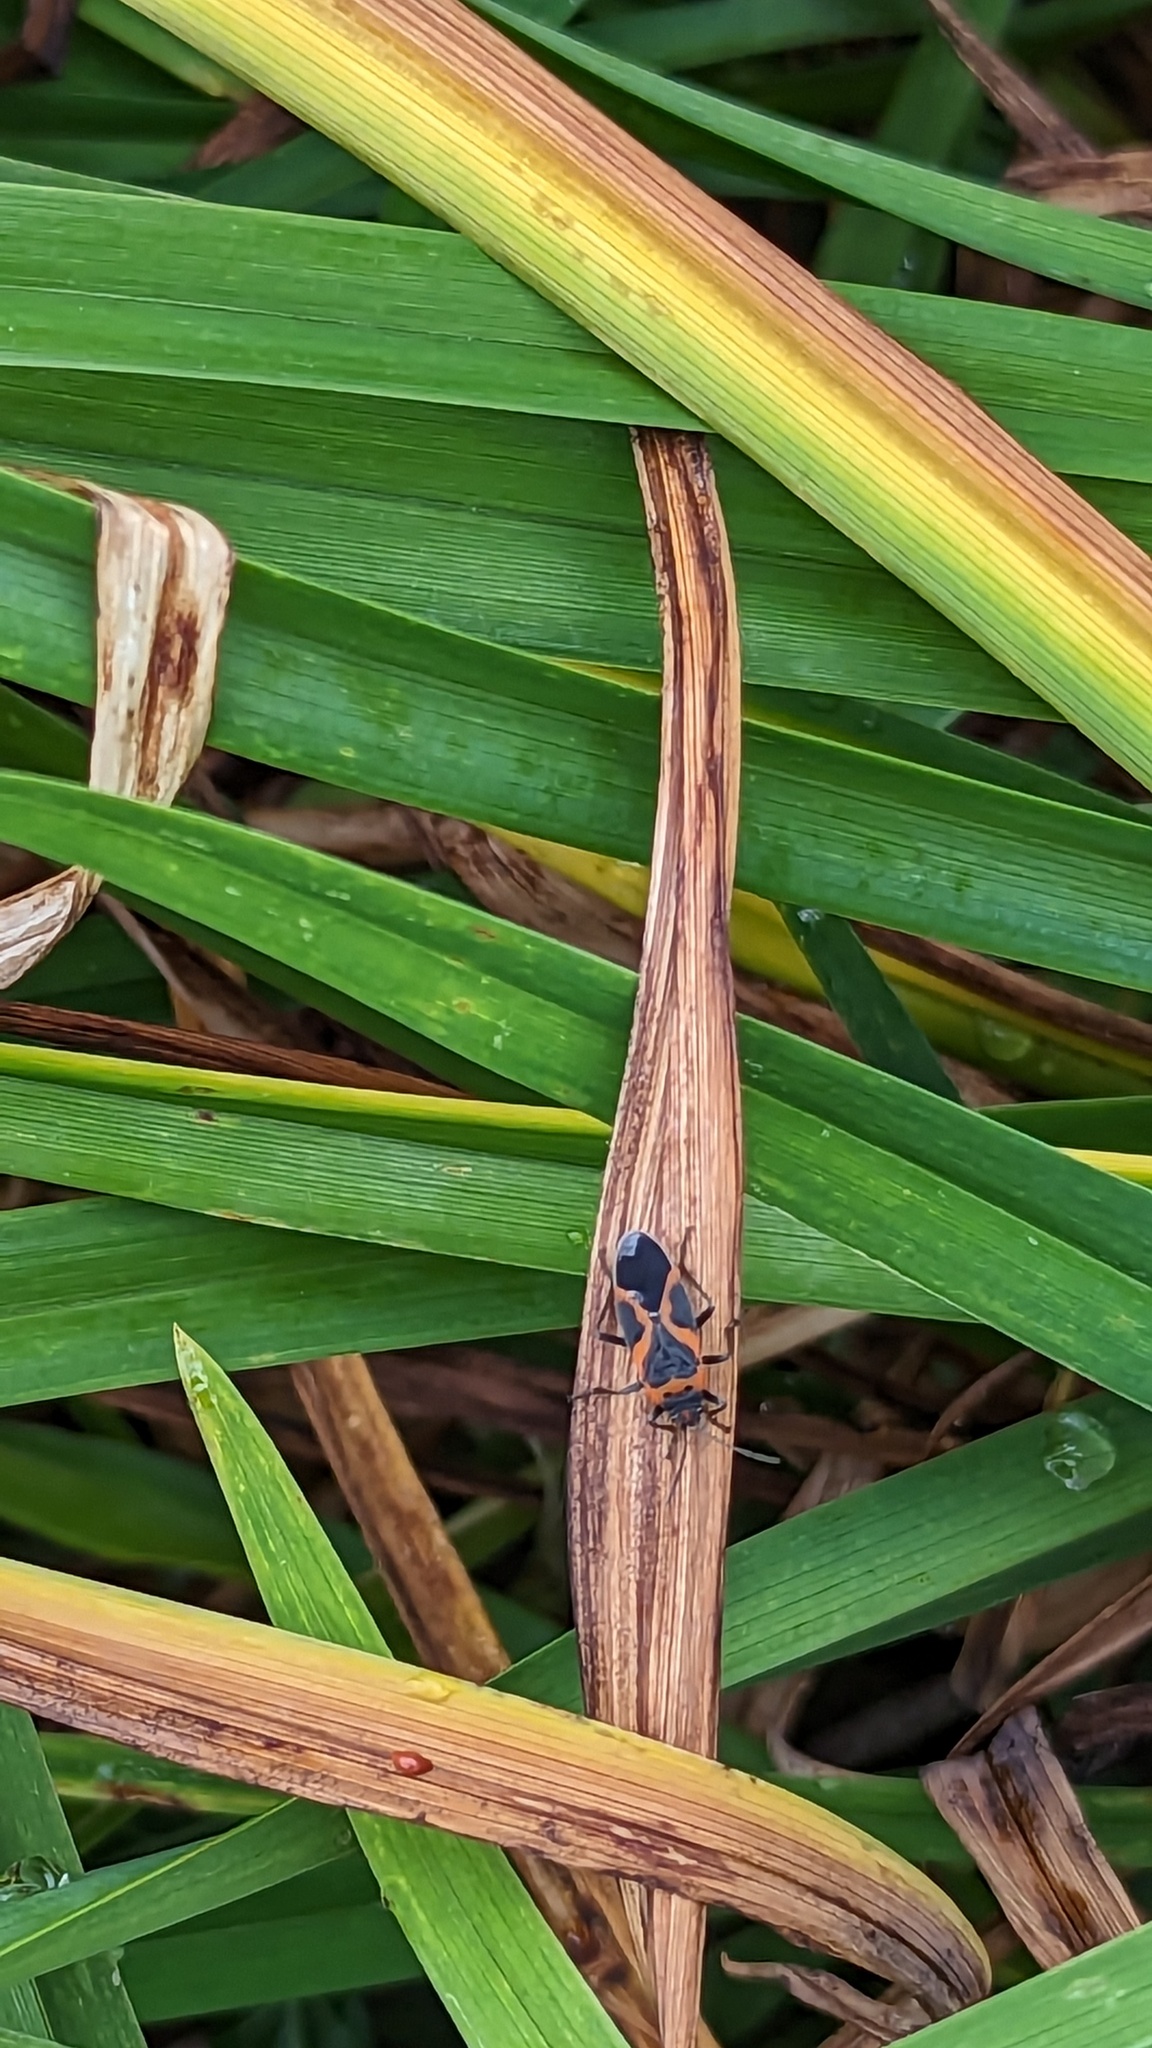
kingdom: Animalia
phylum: Arthropoda
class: Insecta
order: Hemiptera
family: Lygaeidae
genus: Lygaeus
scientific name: Lygaeus kalmii
